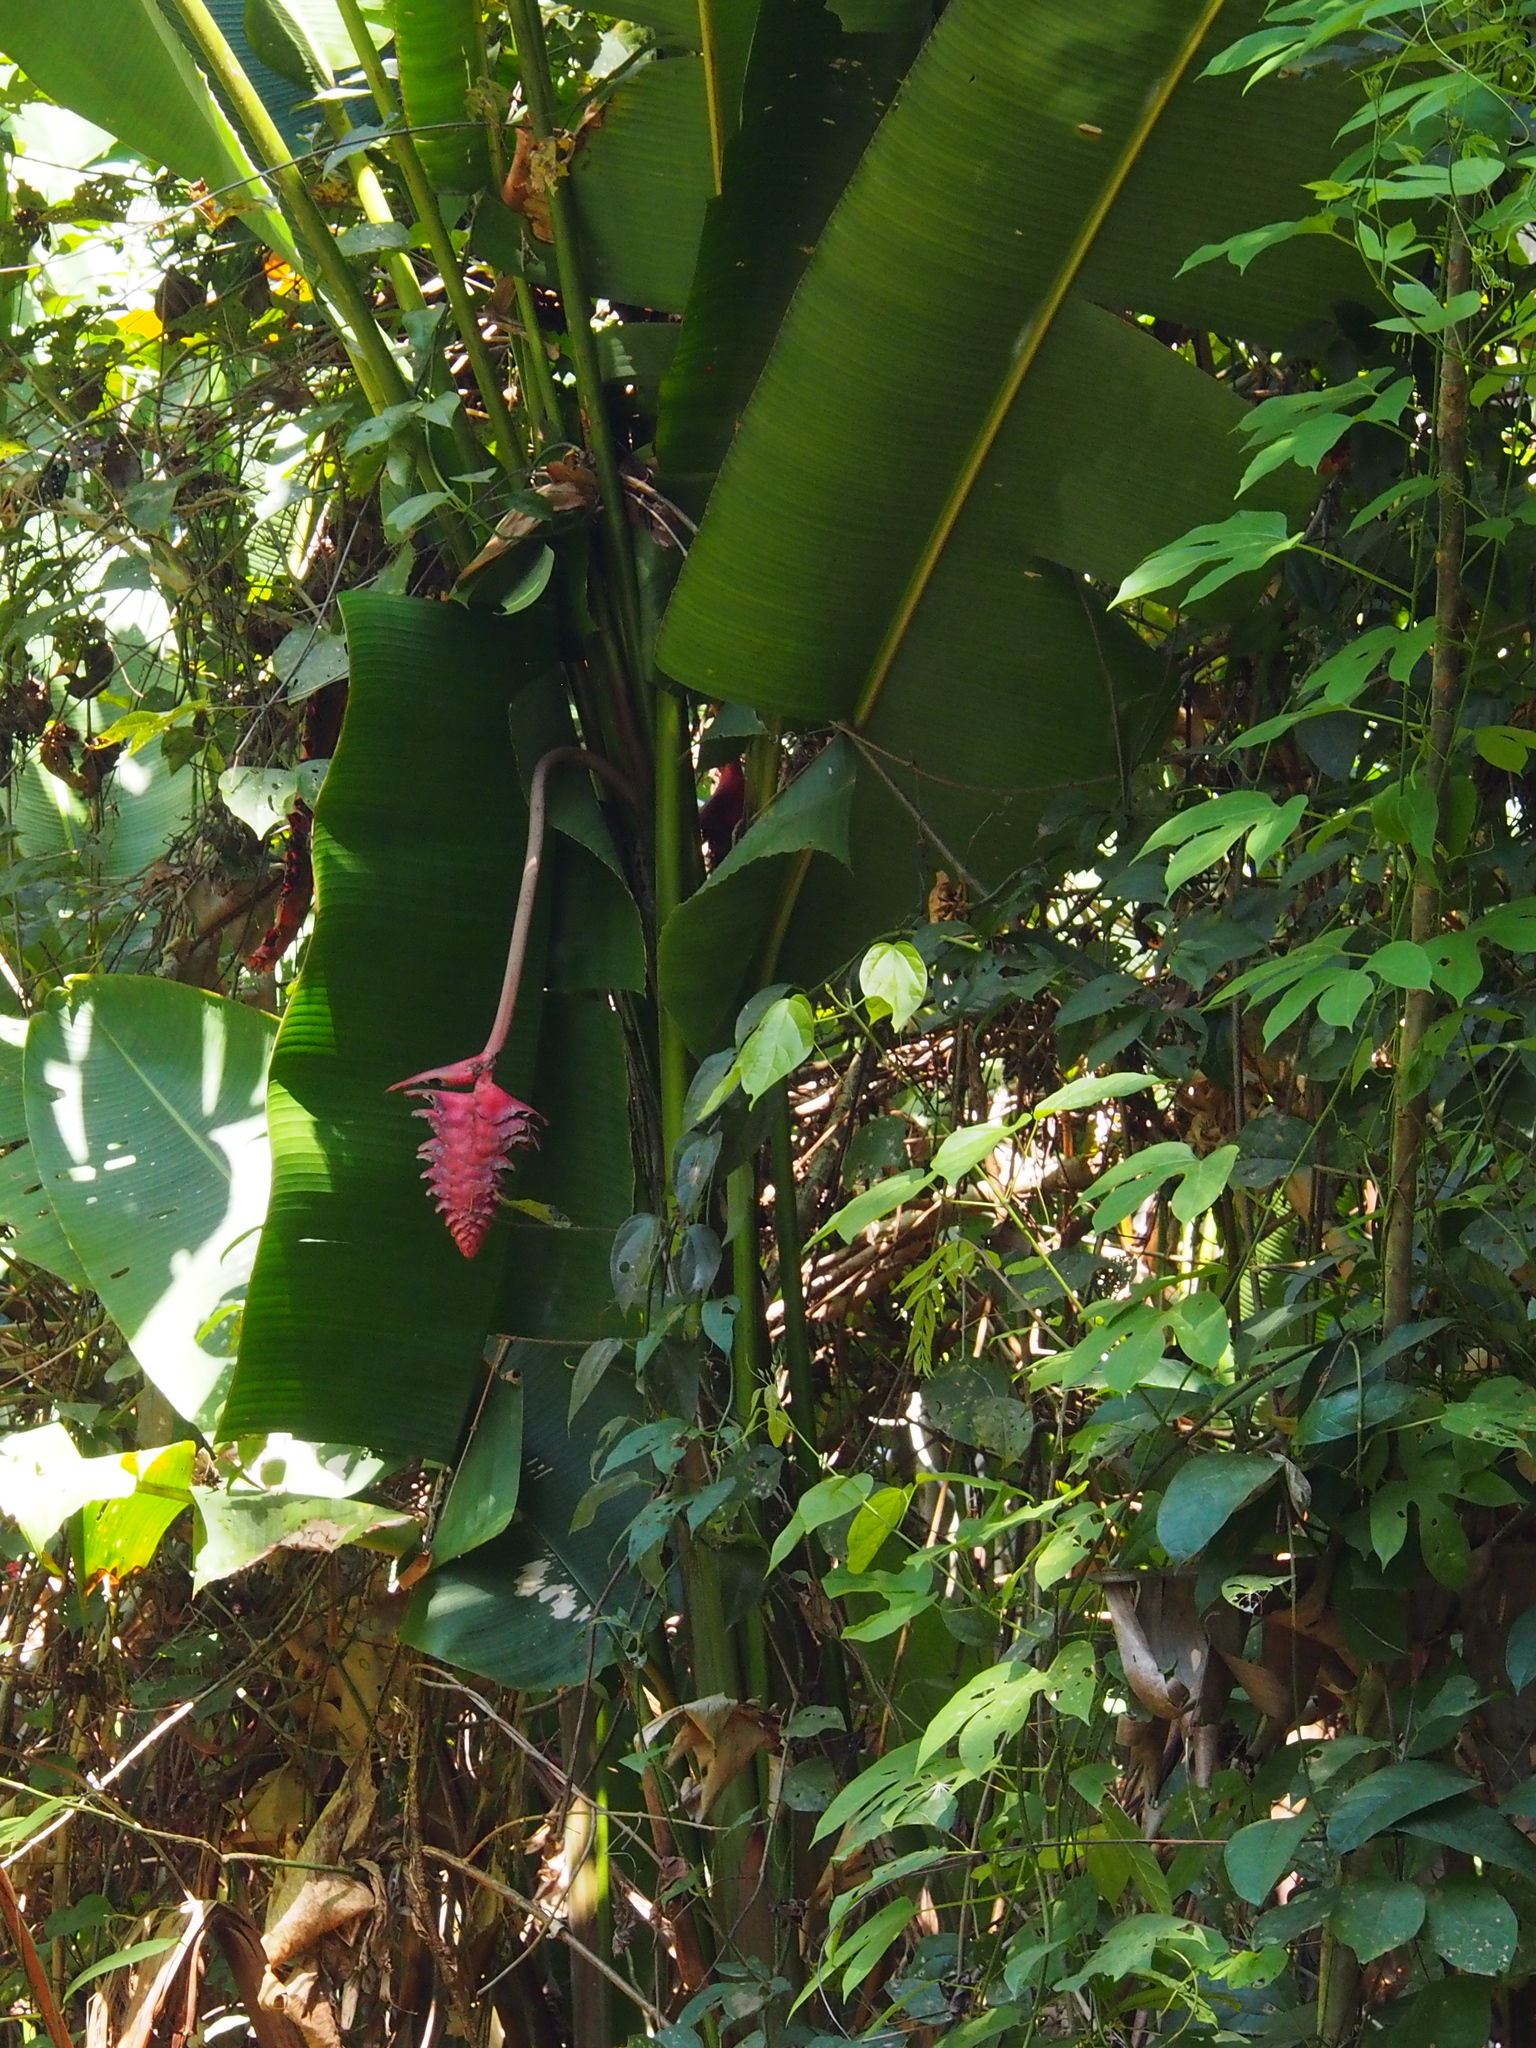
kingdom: Plantae
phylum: Tracheophyta
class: Liliopsida
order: Zingiberales
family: Heliconiaceae
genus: Heliconia
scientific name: Heliconia mariae
